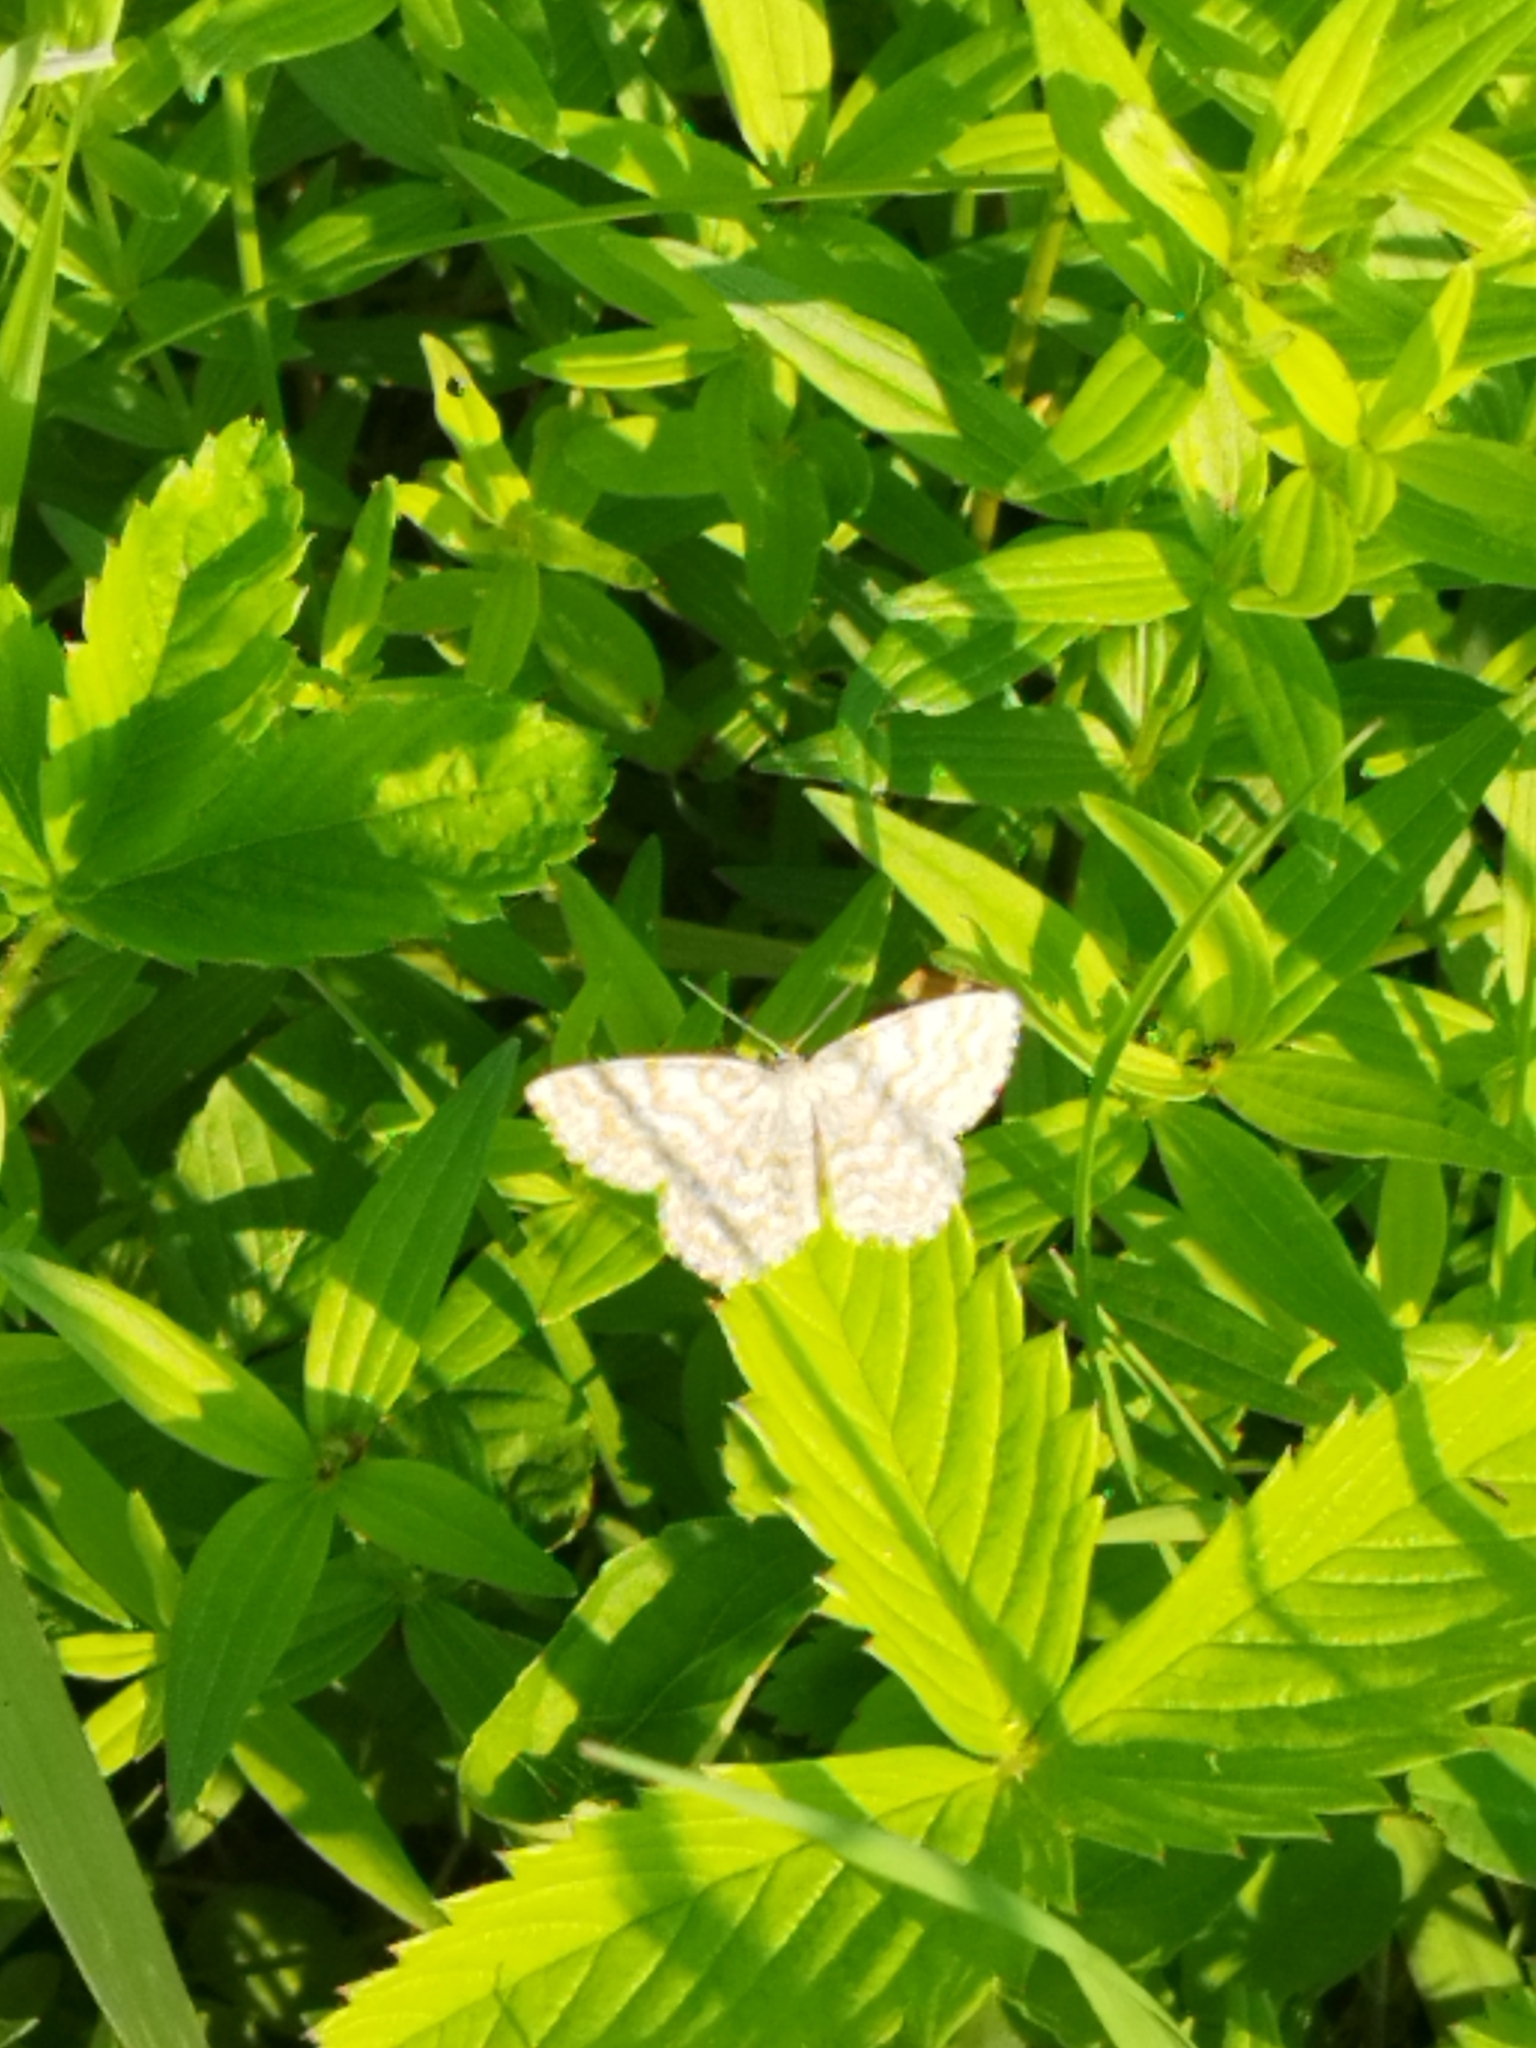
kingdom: Animalia
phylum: Arthropoda
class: Insecta
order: Lepidoptera
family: Geometridae
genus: Scopula
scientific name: Scopula immorata
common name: Lewes wave
